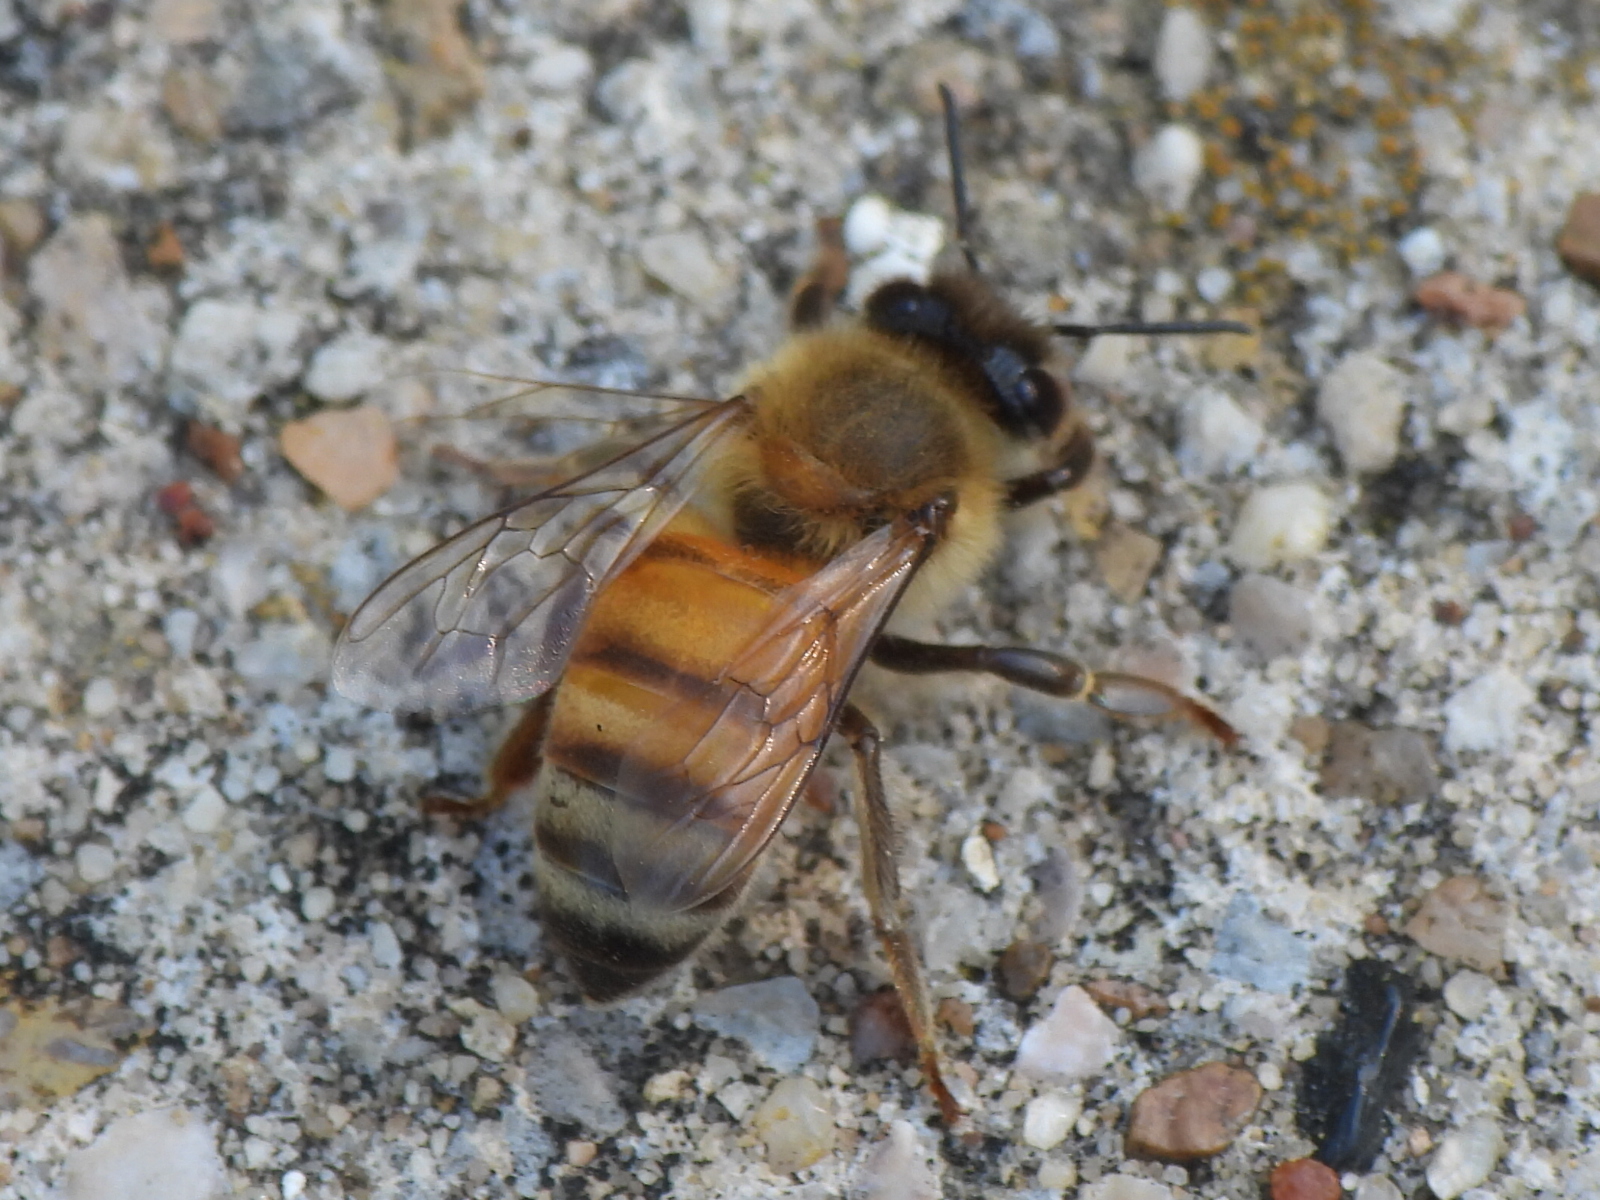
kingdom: Animalia
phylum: Arthropoda
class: Insecta
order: Hymenoptera
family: Apidae
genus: Apis
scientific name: Apis mellifera
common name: Honey bee
